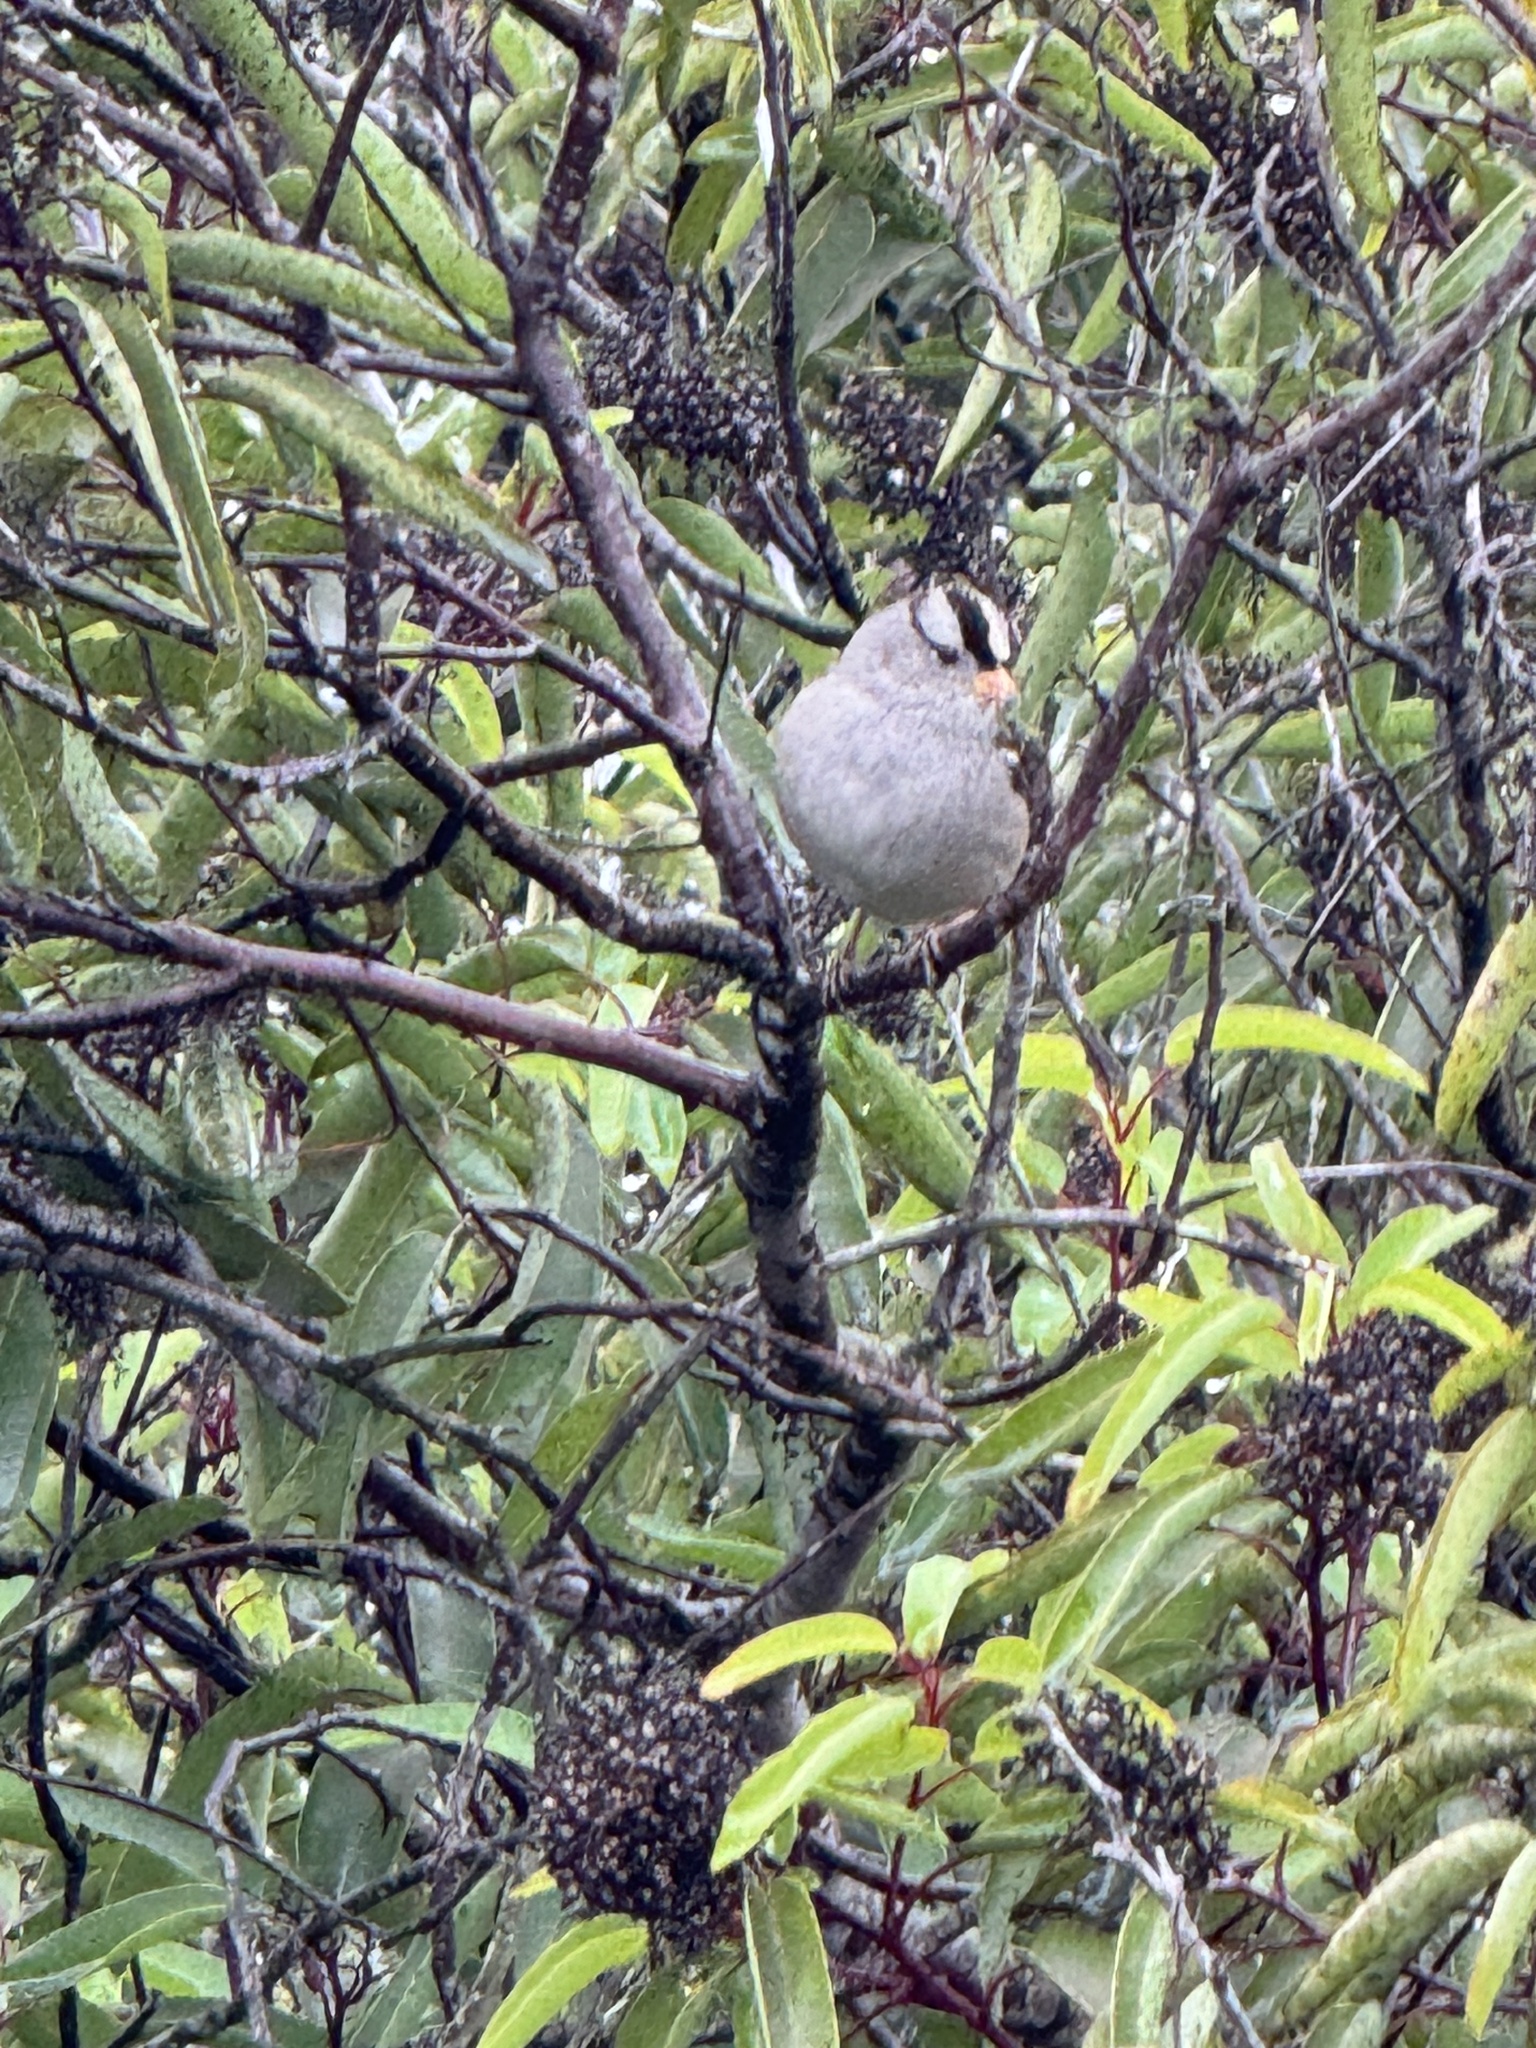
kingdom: Animalia
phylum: Chordata
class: Aves
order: Passeriformes
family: Passerellidae
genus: Zonotrichia
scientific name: Zonotrichia leucophrys
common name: White-crowned sparrow
